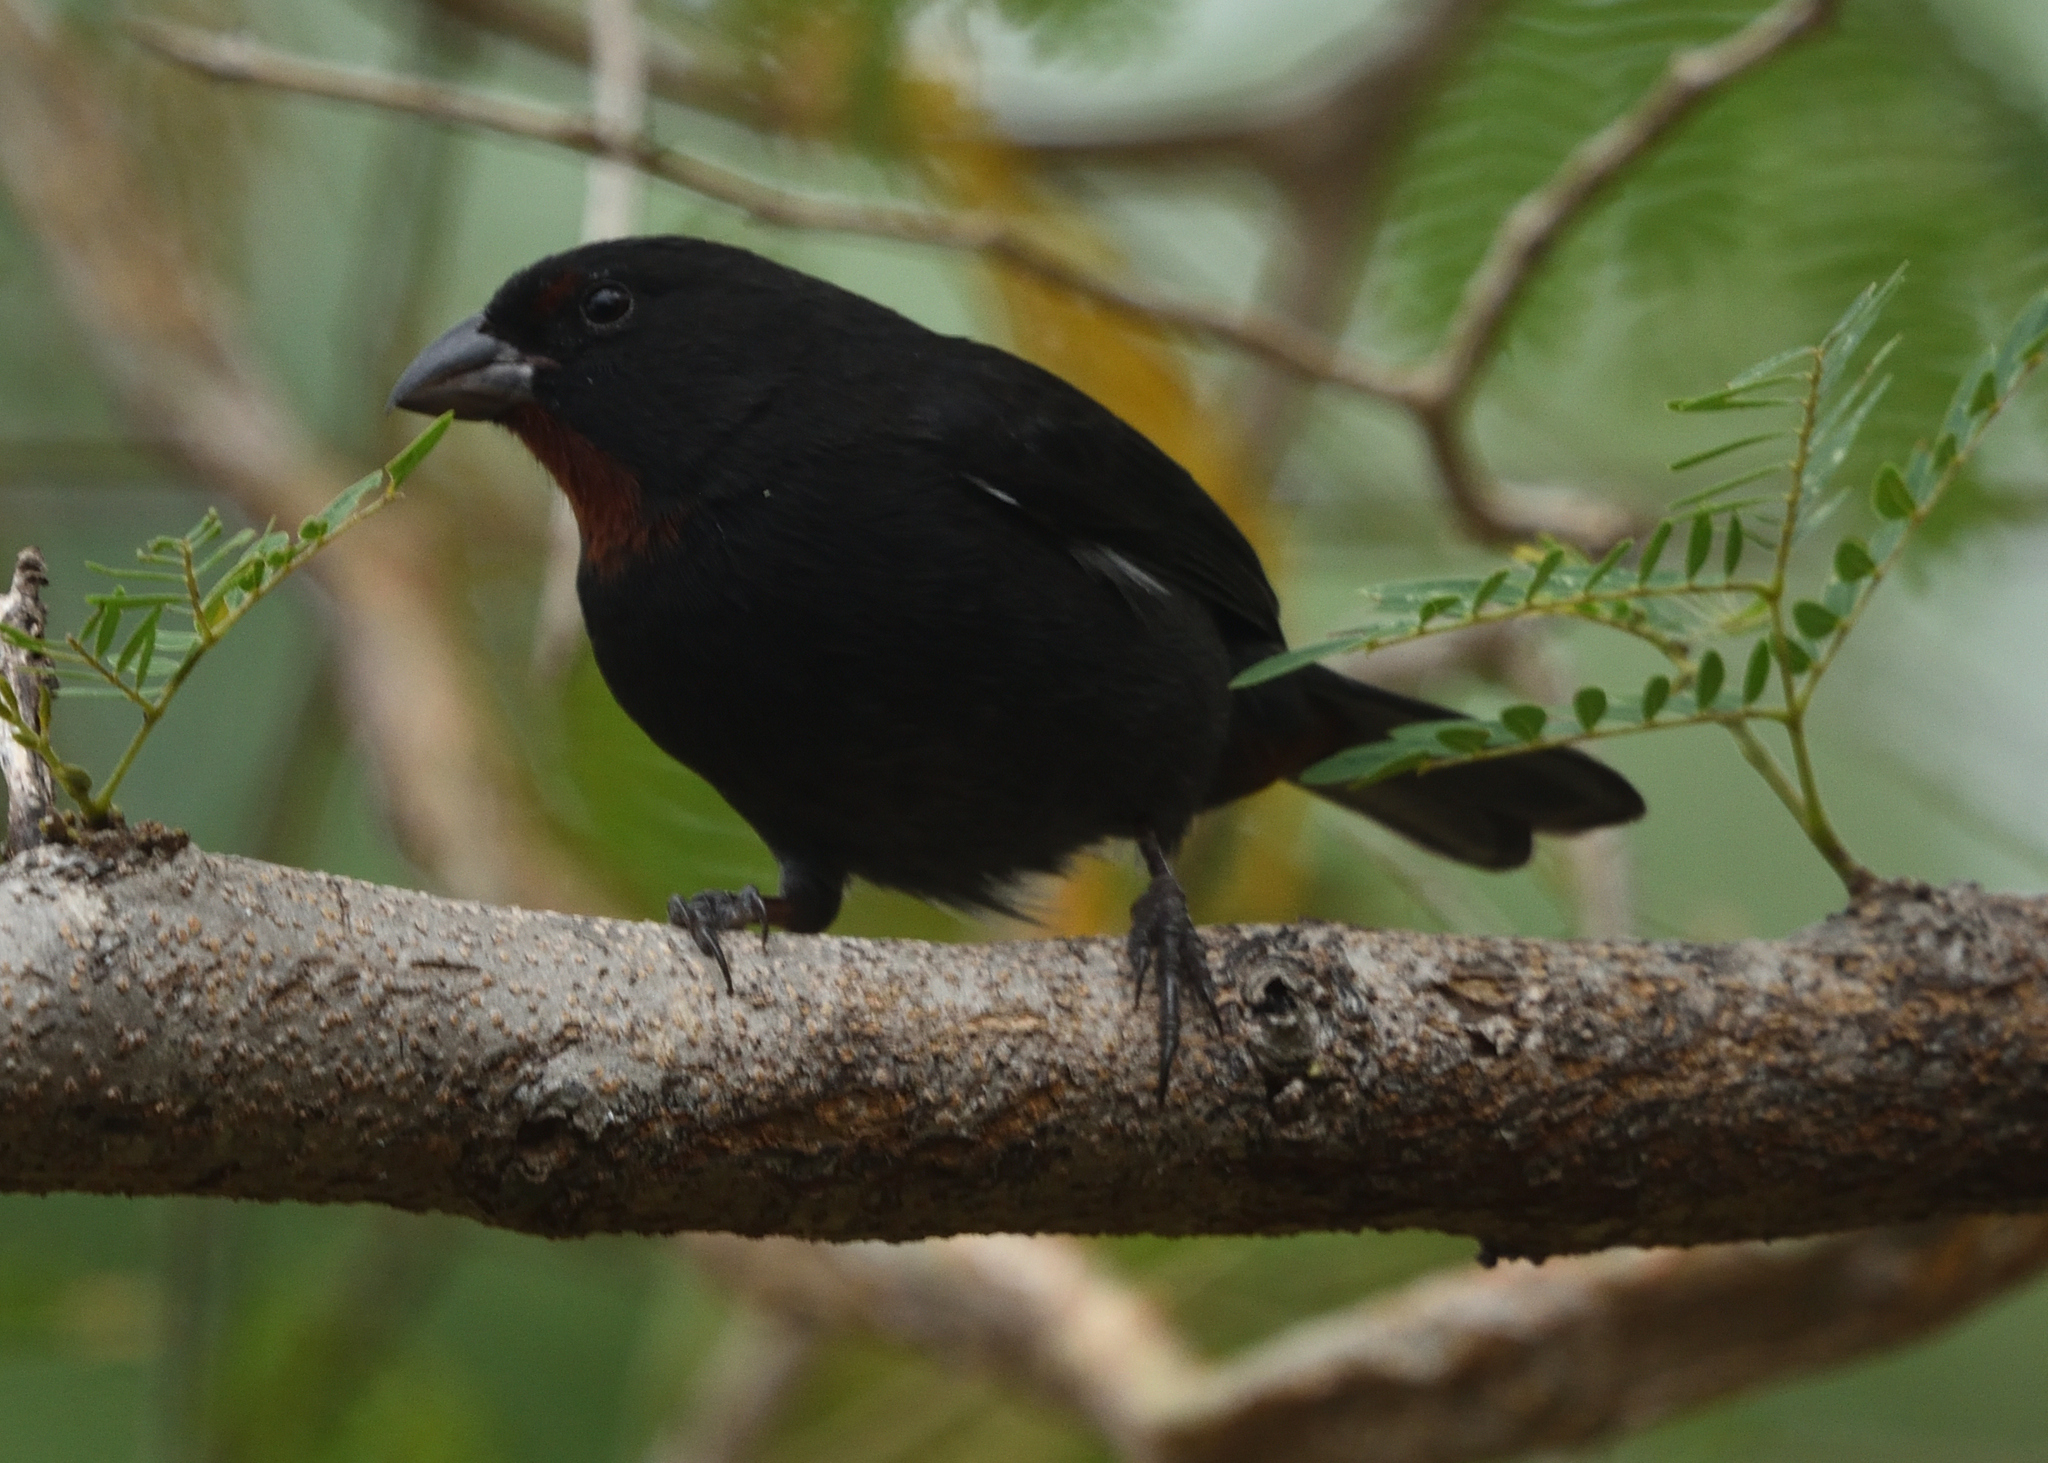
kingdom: Animalia
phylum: Chordata
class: Aves
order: Passeriformes
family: Thraupidae
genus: Loxigilla
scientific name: Loxigilla noctis
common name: Lesser antillean bullfinch
